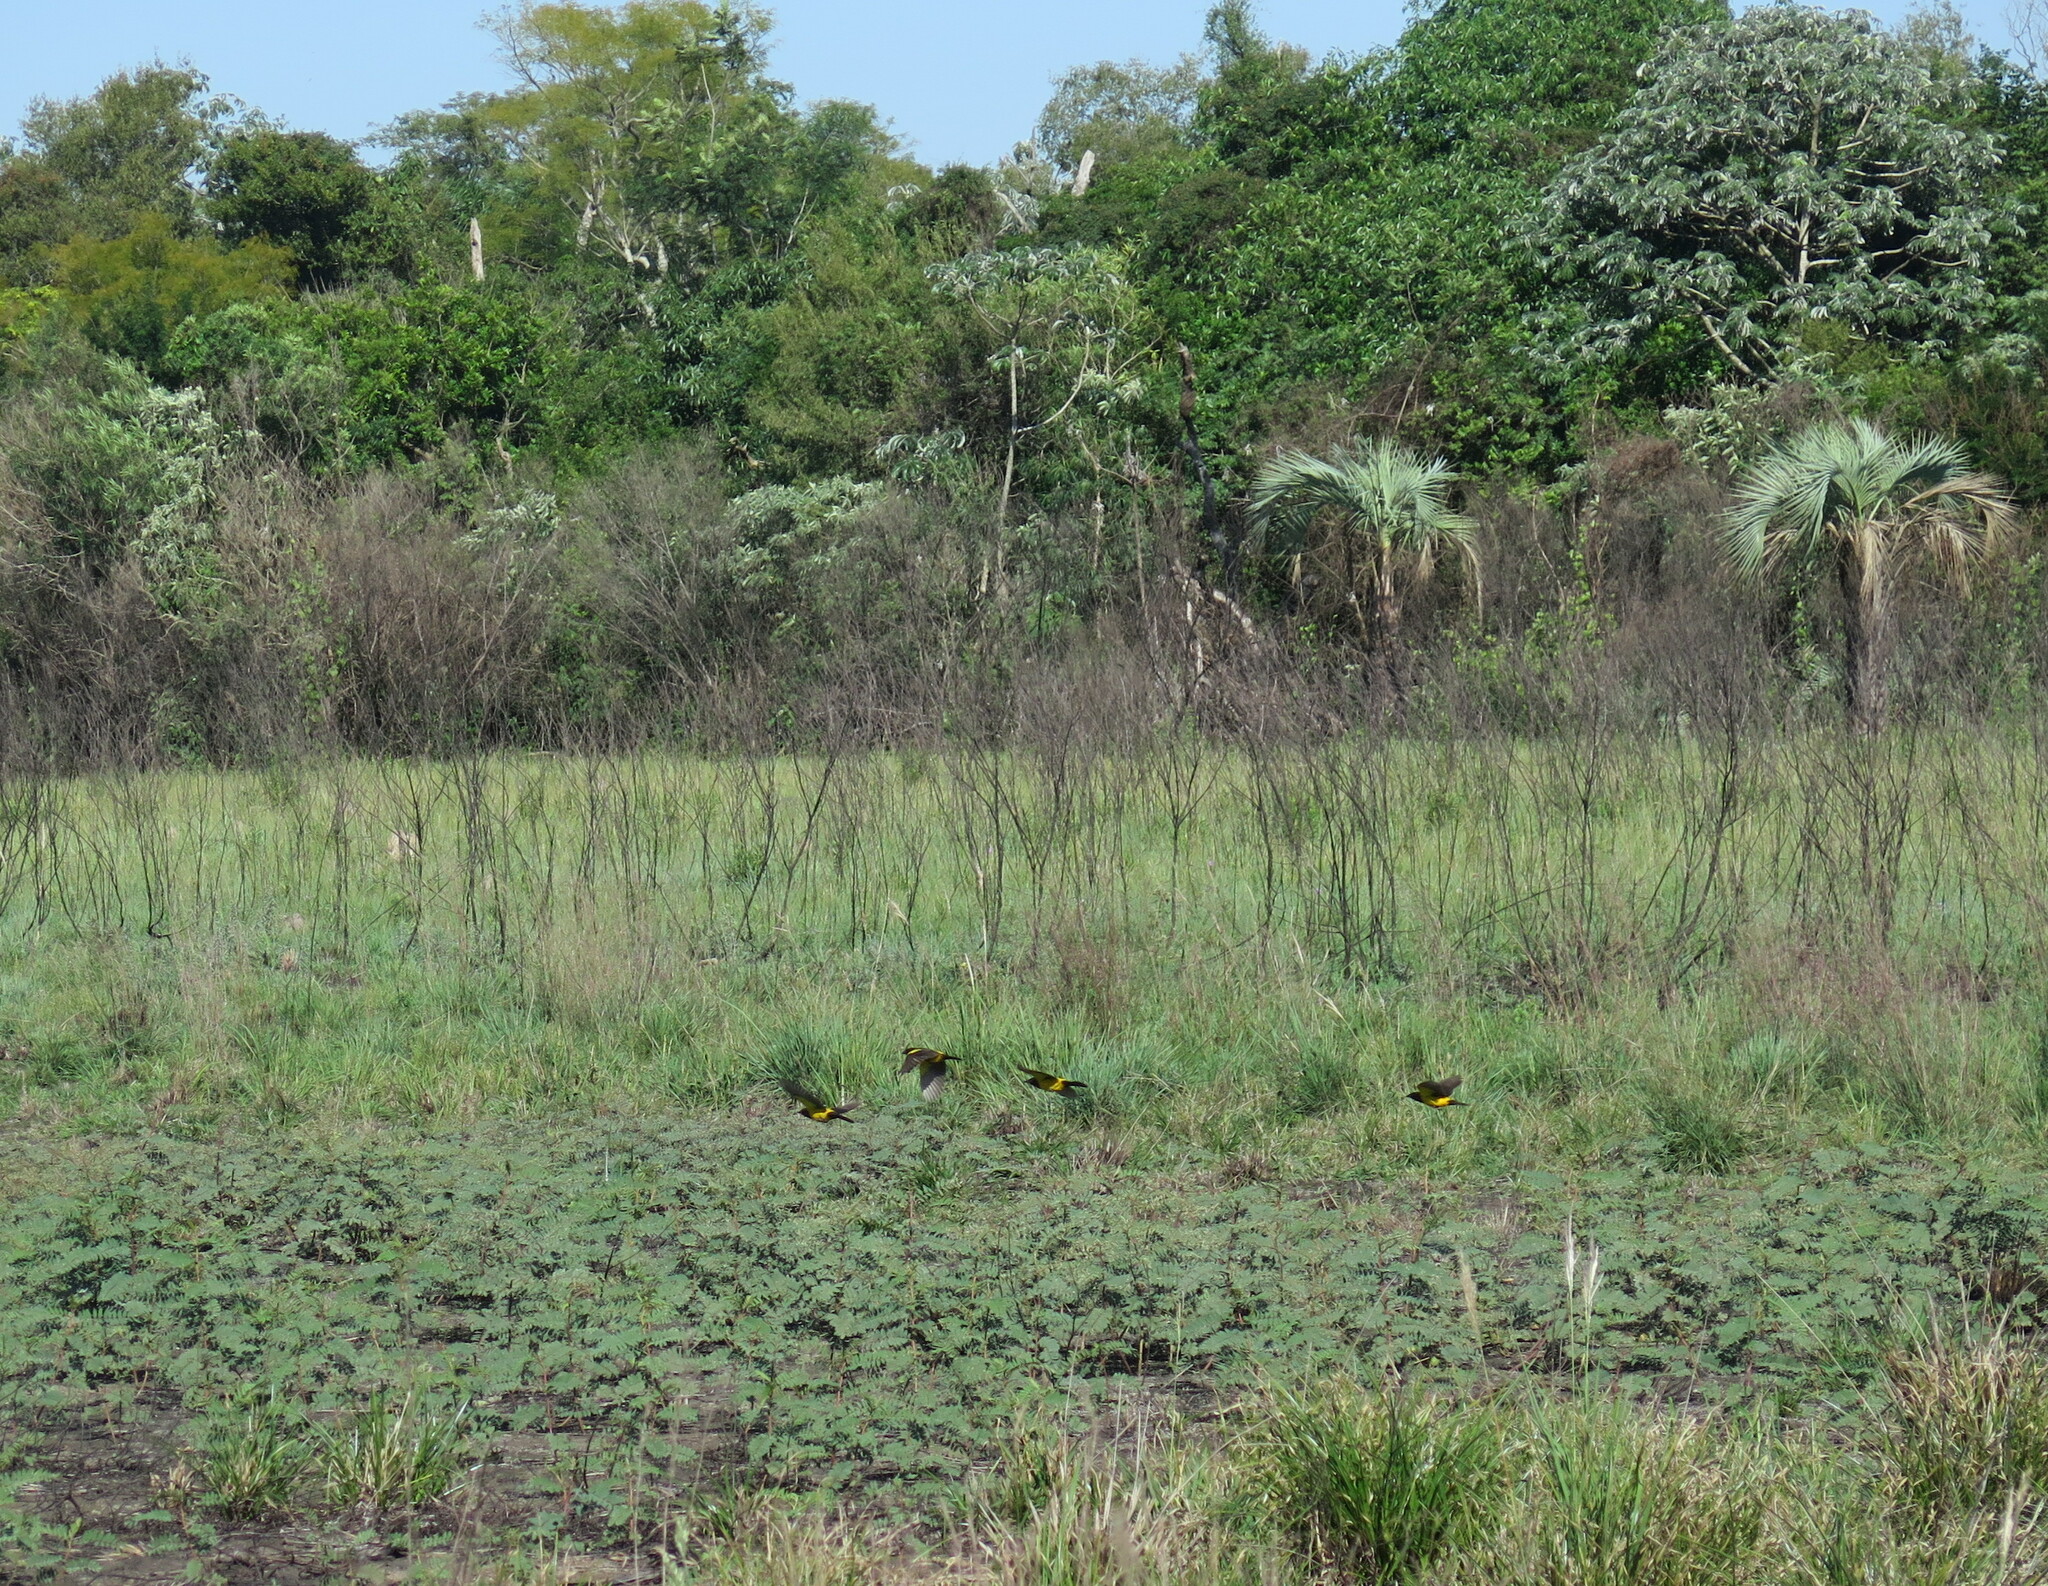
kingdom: Animalia
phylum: Chordata
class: Aves
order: Passeriformes
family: Icteridae
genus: Pseudoleistes
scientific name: Pseudoleistes guirahuro
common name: Yellow-rumped marshbird
